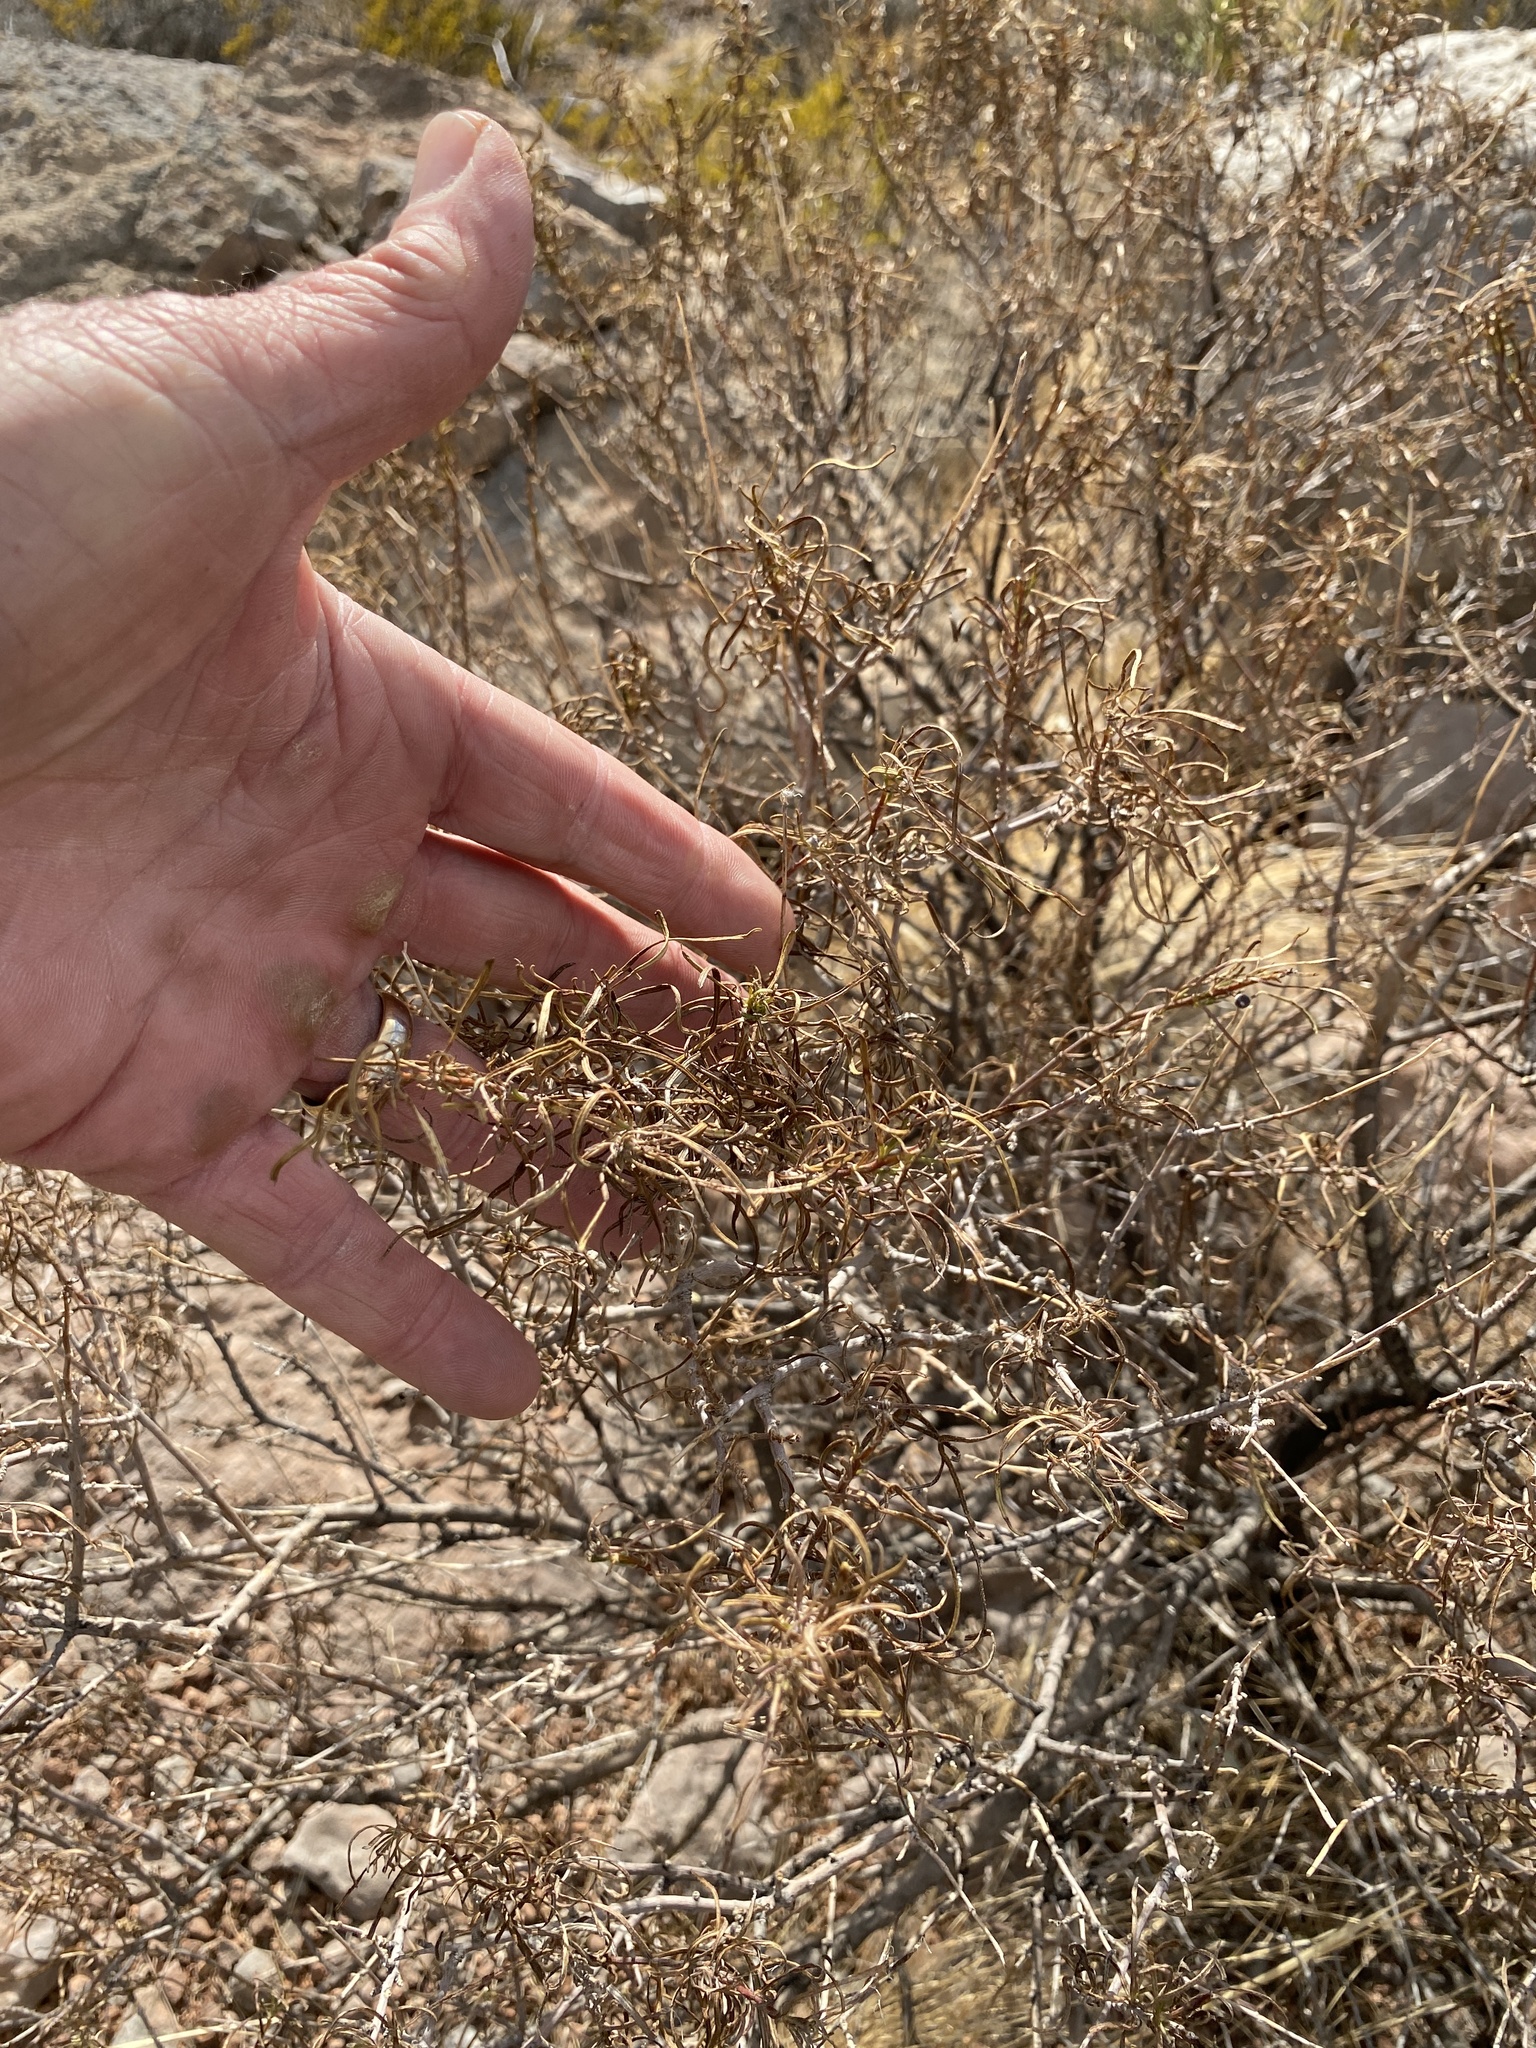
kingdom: Plantae
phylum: Tracheophyta
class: Magnoliopsida
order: Asterales
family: Asteraceae
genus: Sidneya
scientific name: Sidneya tenuifolia
